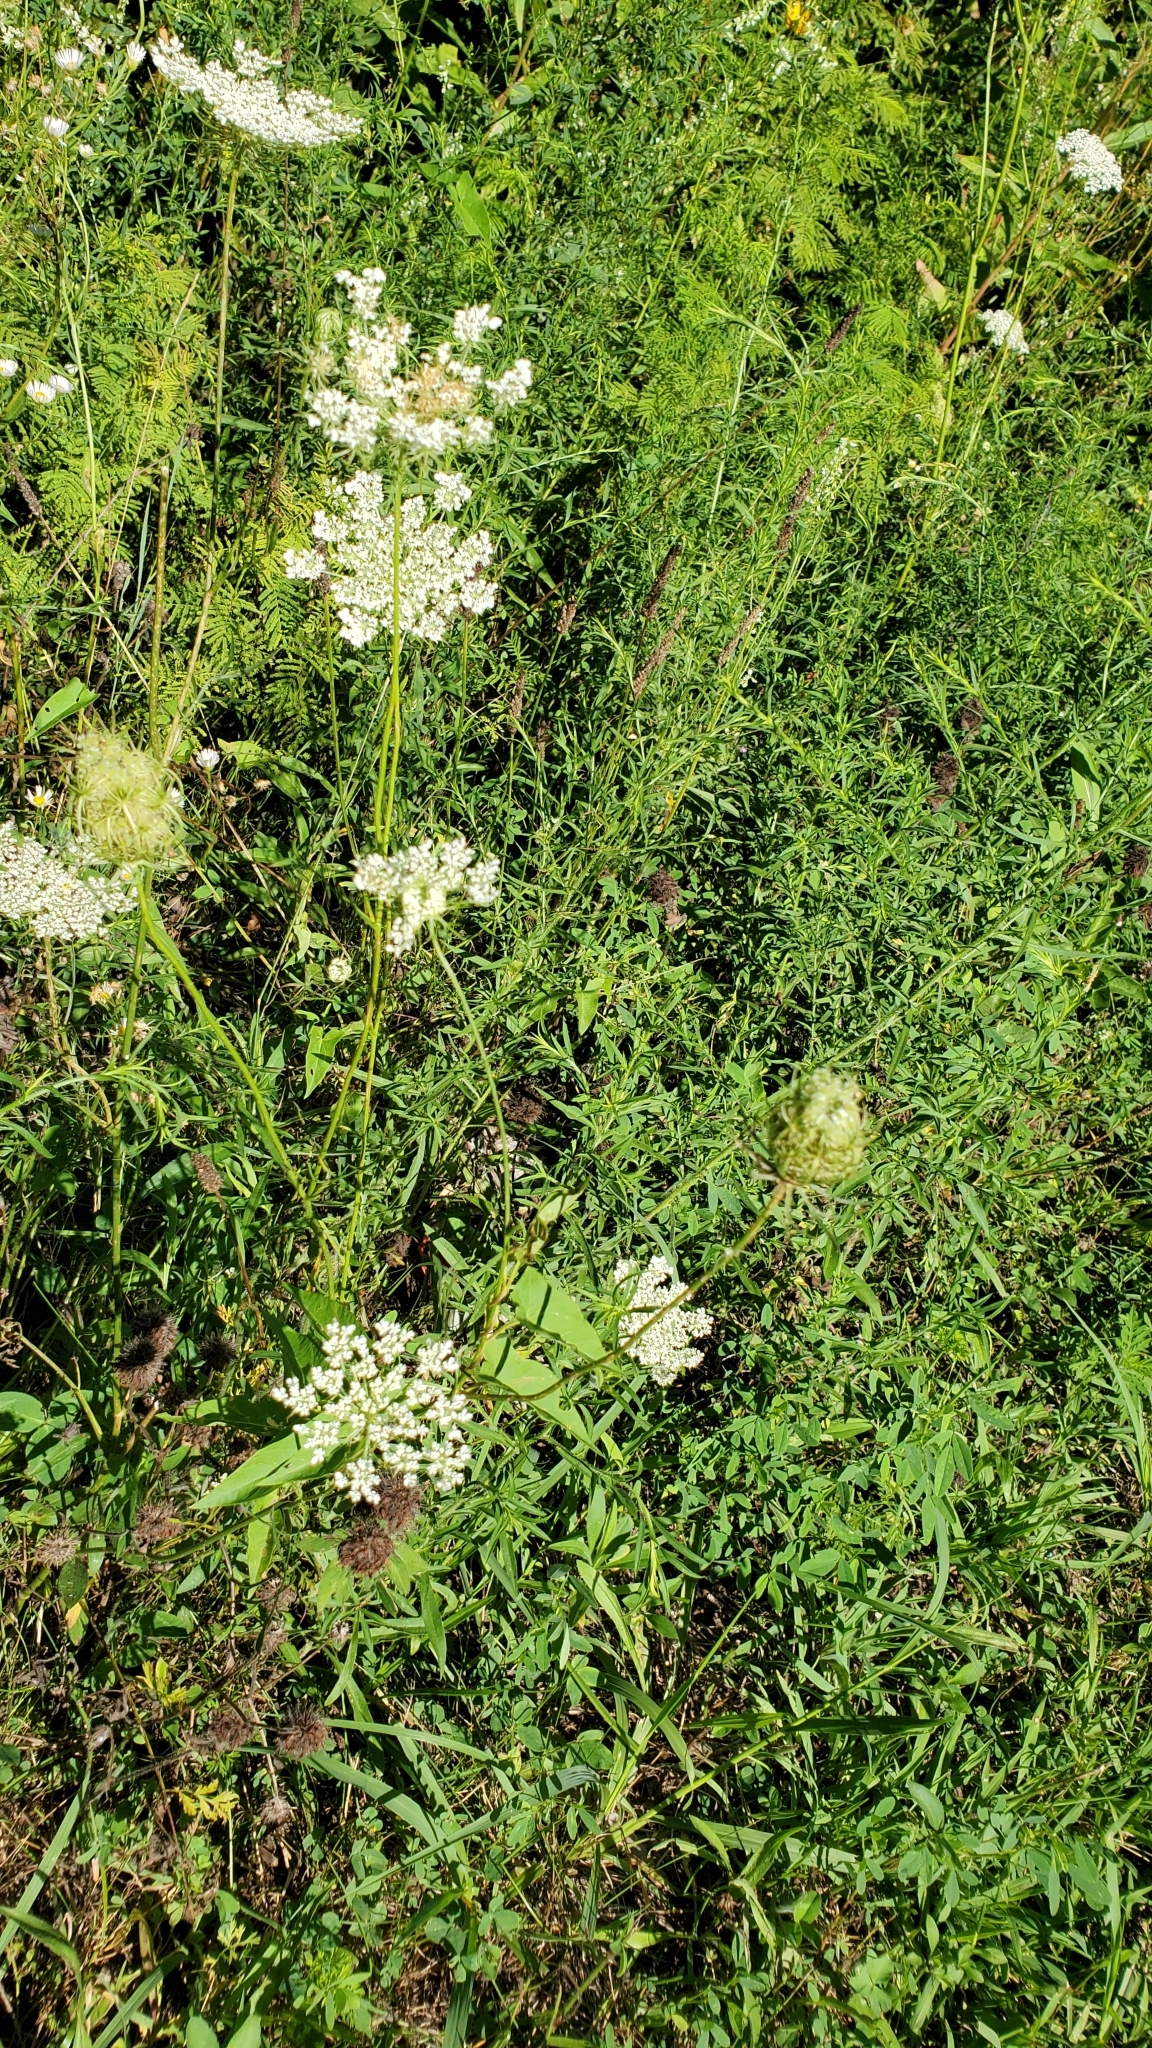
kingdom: Plantae
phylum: Tracheophyta
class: Magnoliopsida
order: Apiales
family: Apiaceae
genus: Daucus
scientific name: Daucus carota
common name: Wild carrot
